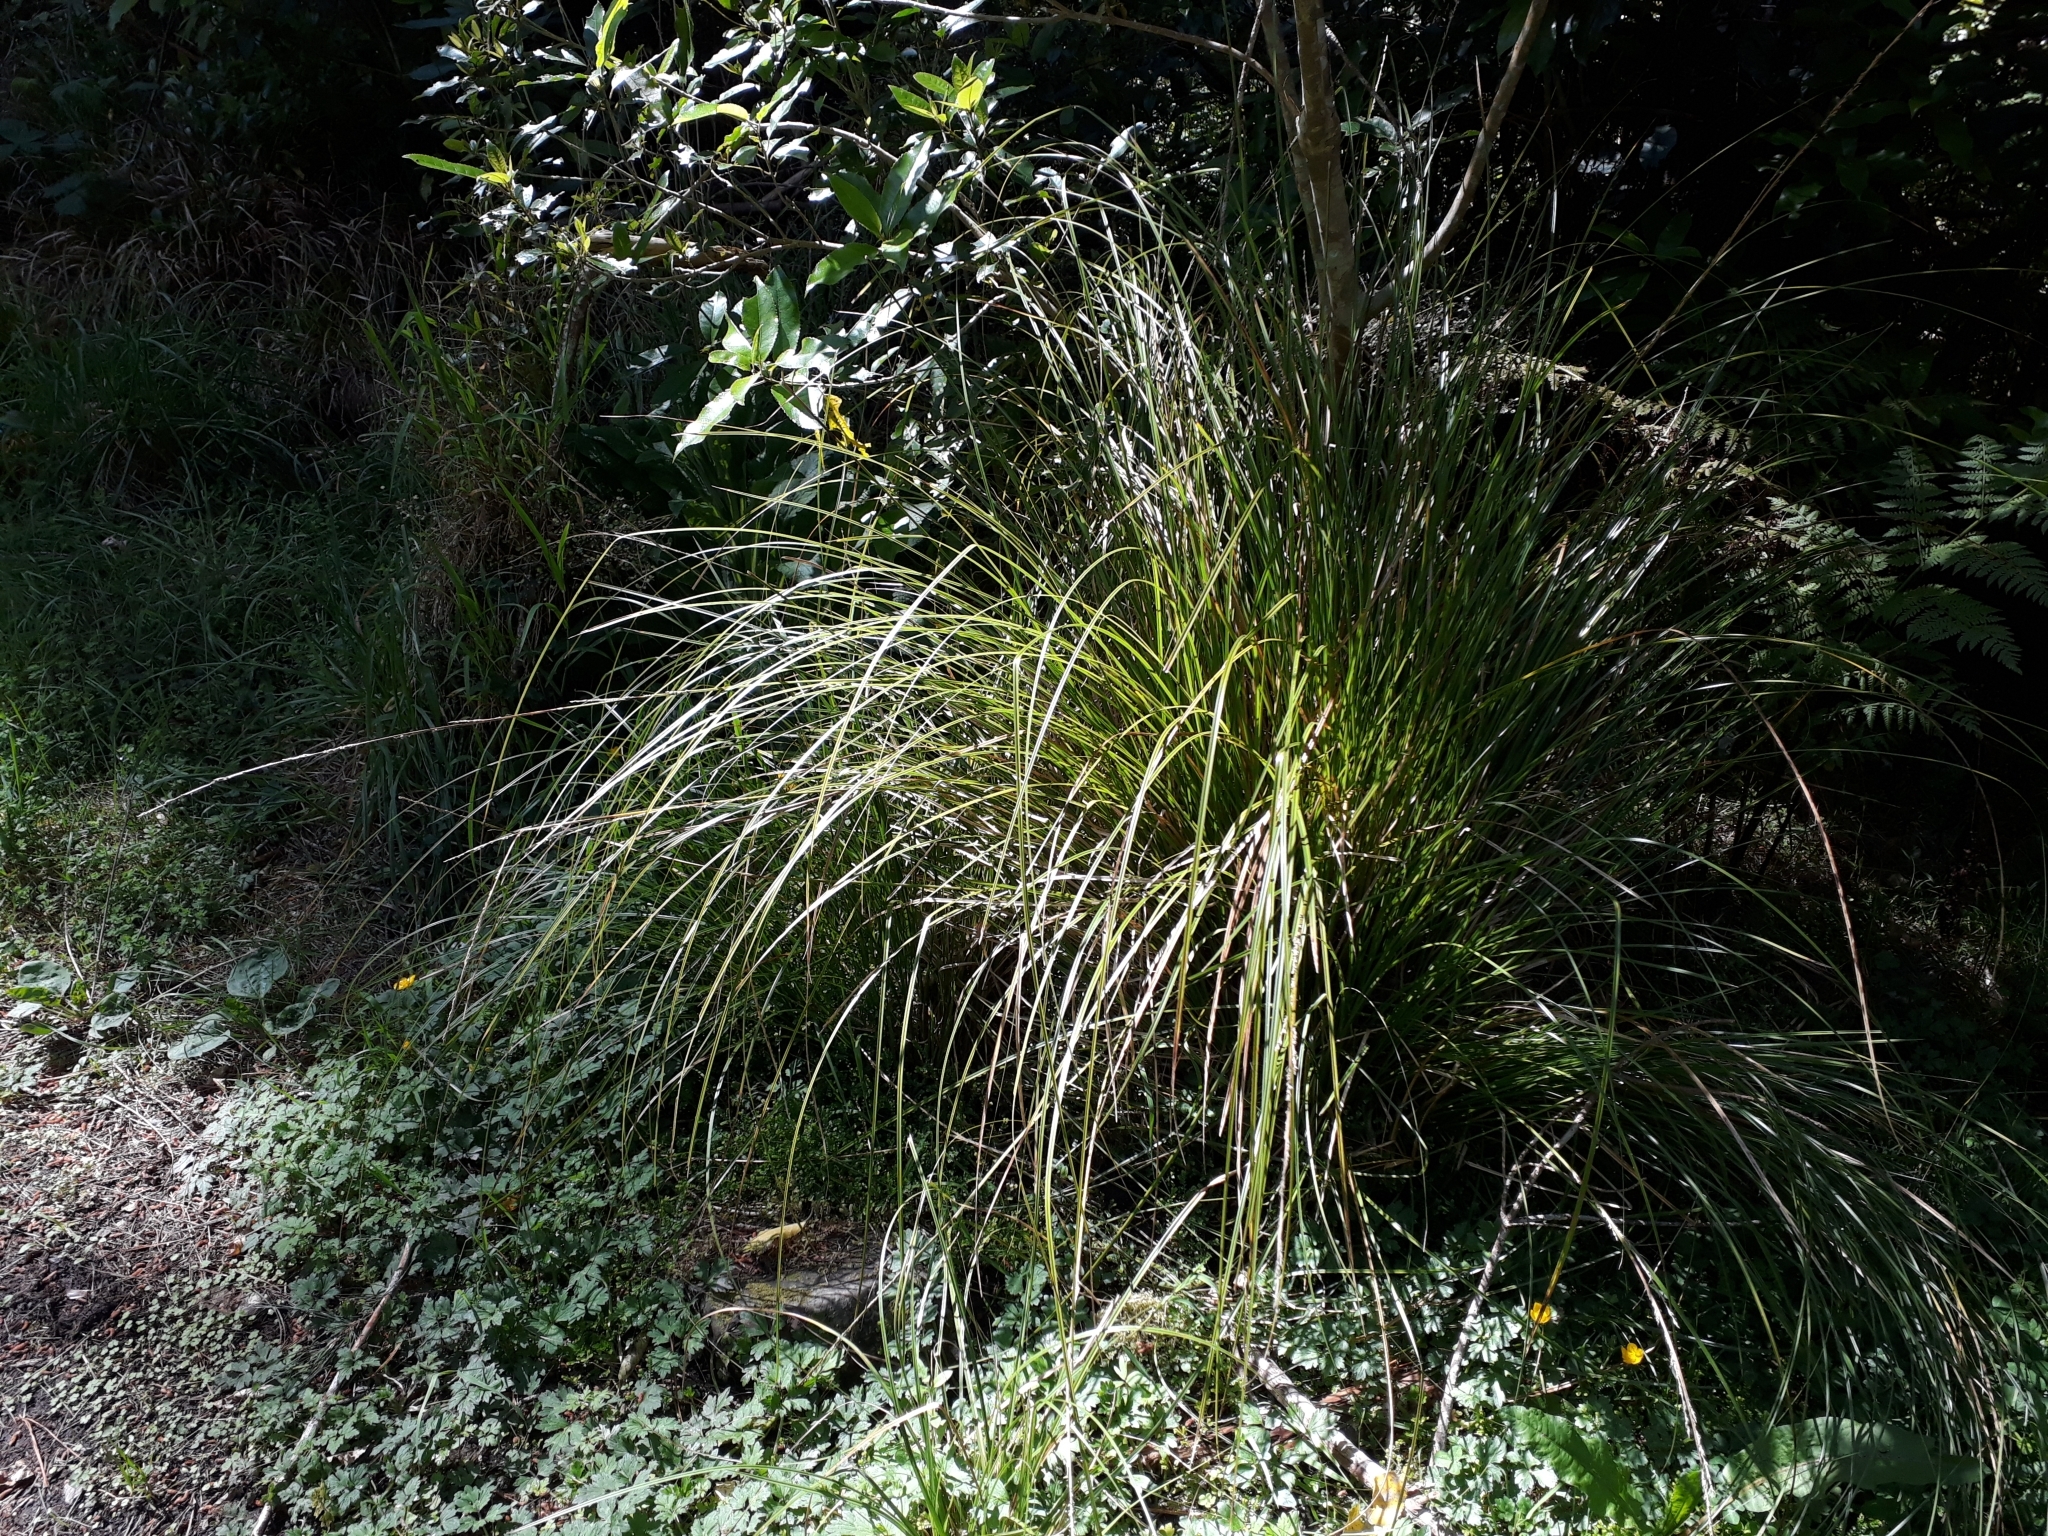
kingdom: Plantae
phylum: Tracheophyta
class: Liliopsida
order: Poales
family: Cyperaceae
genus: Carex
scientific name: Carex virgata
